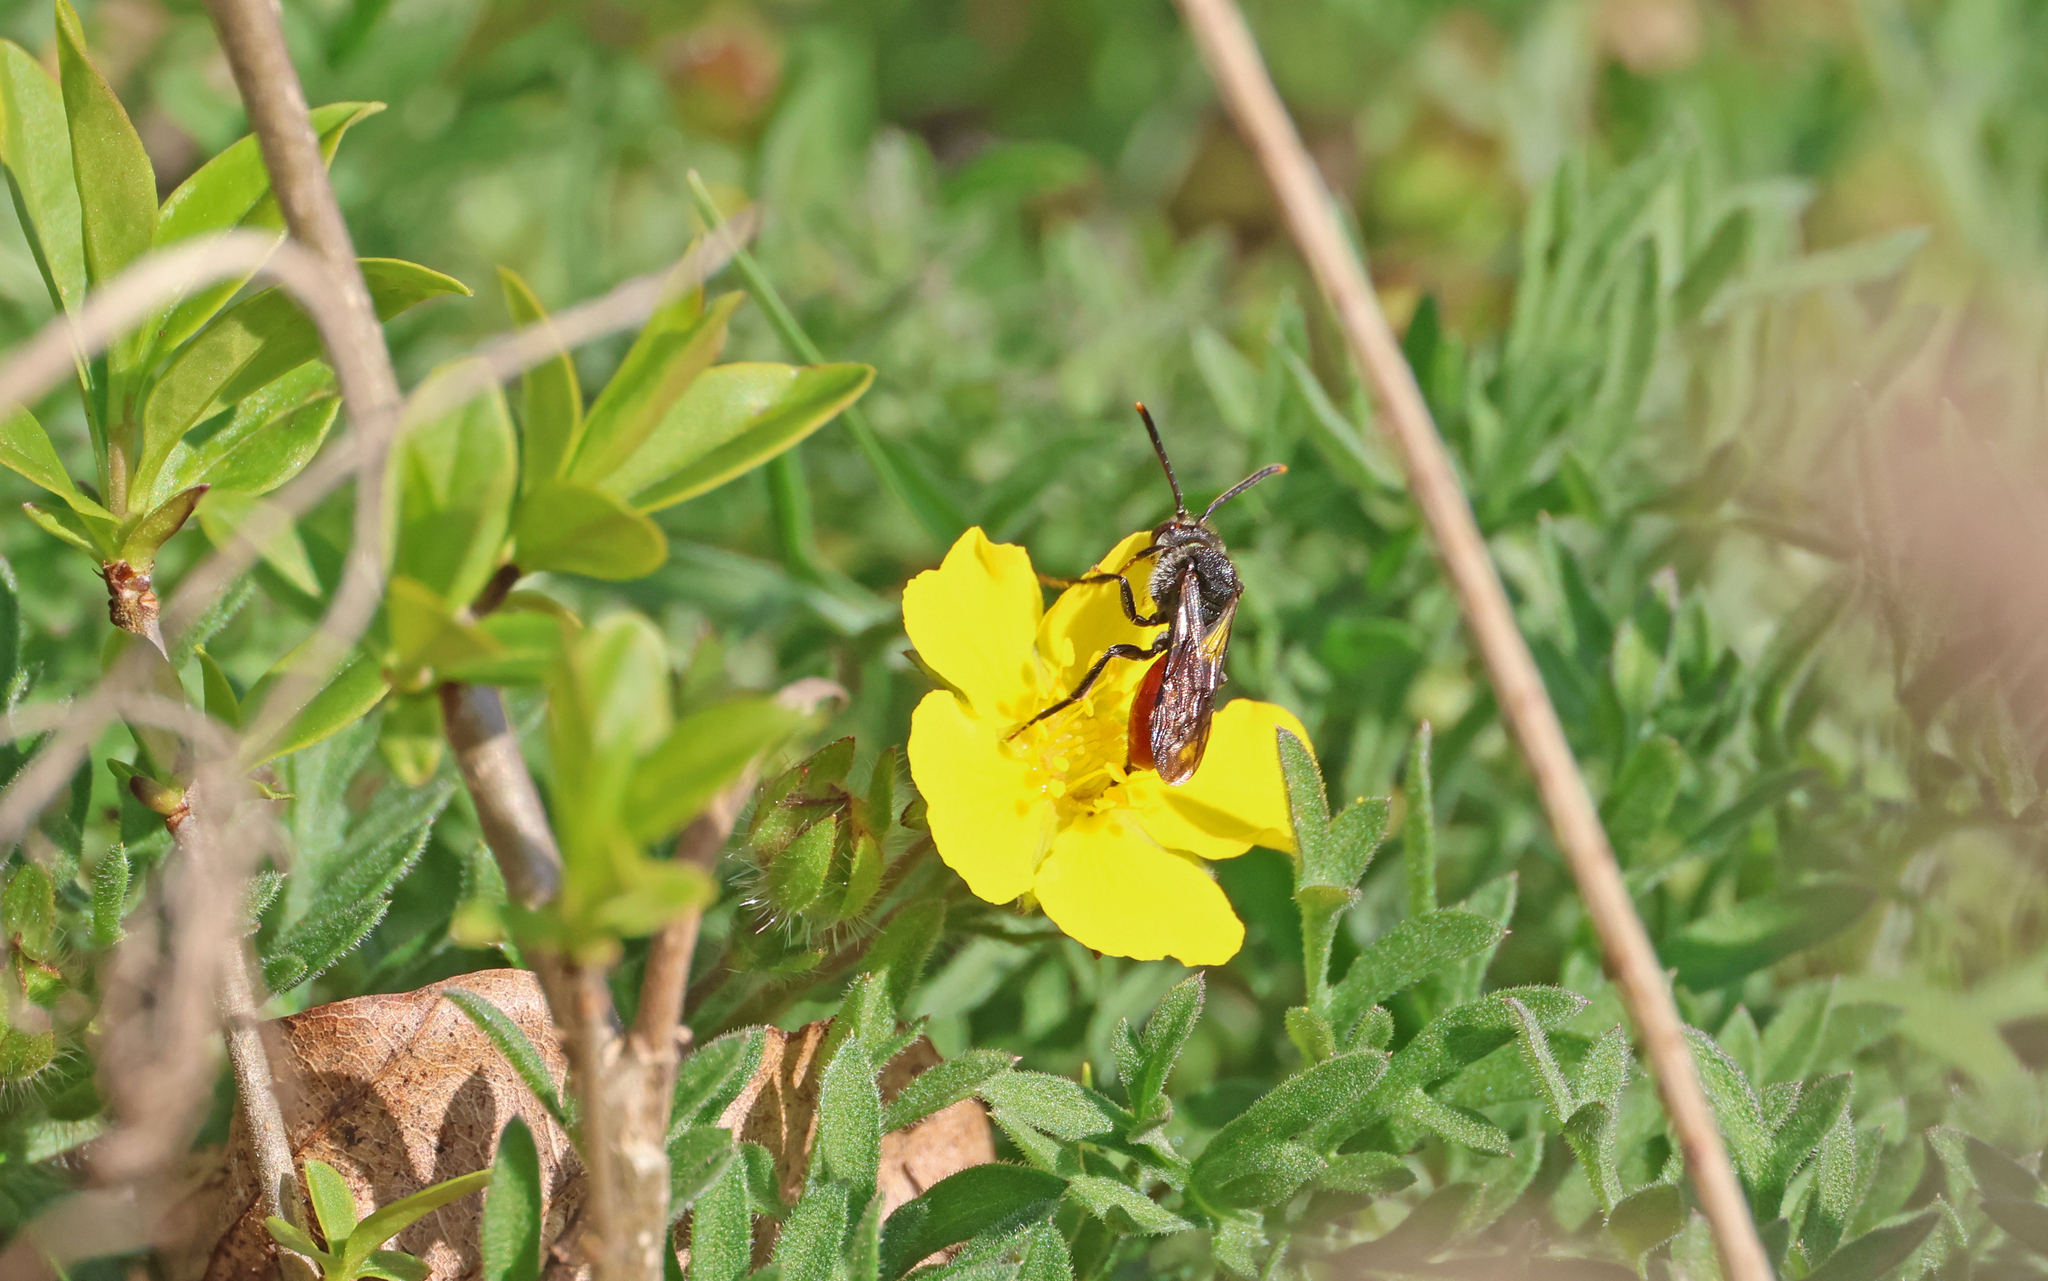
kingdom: Animalia
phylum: Arthropoda
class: Insecta
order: Hymenoptera
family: Apidae
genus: Nomada
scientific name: Nomada fabriciana
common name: Fabricius' nomad bee
